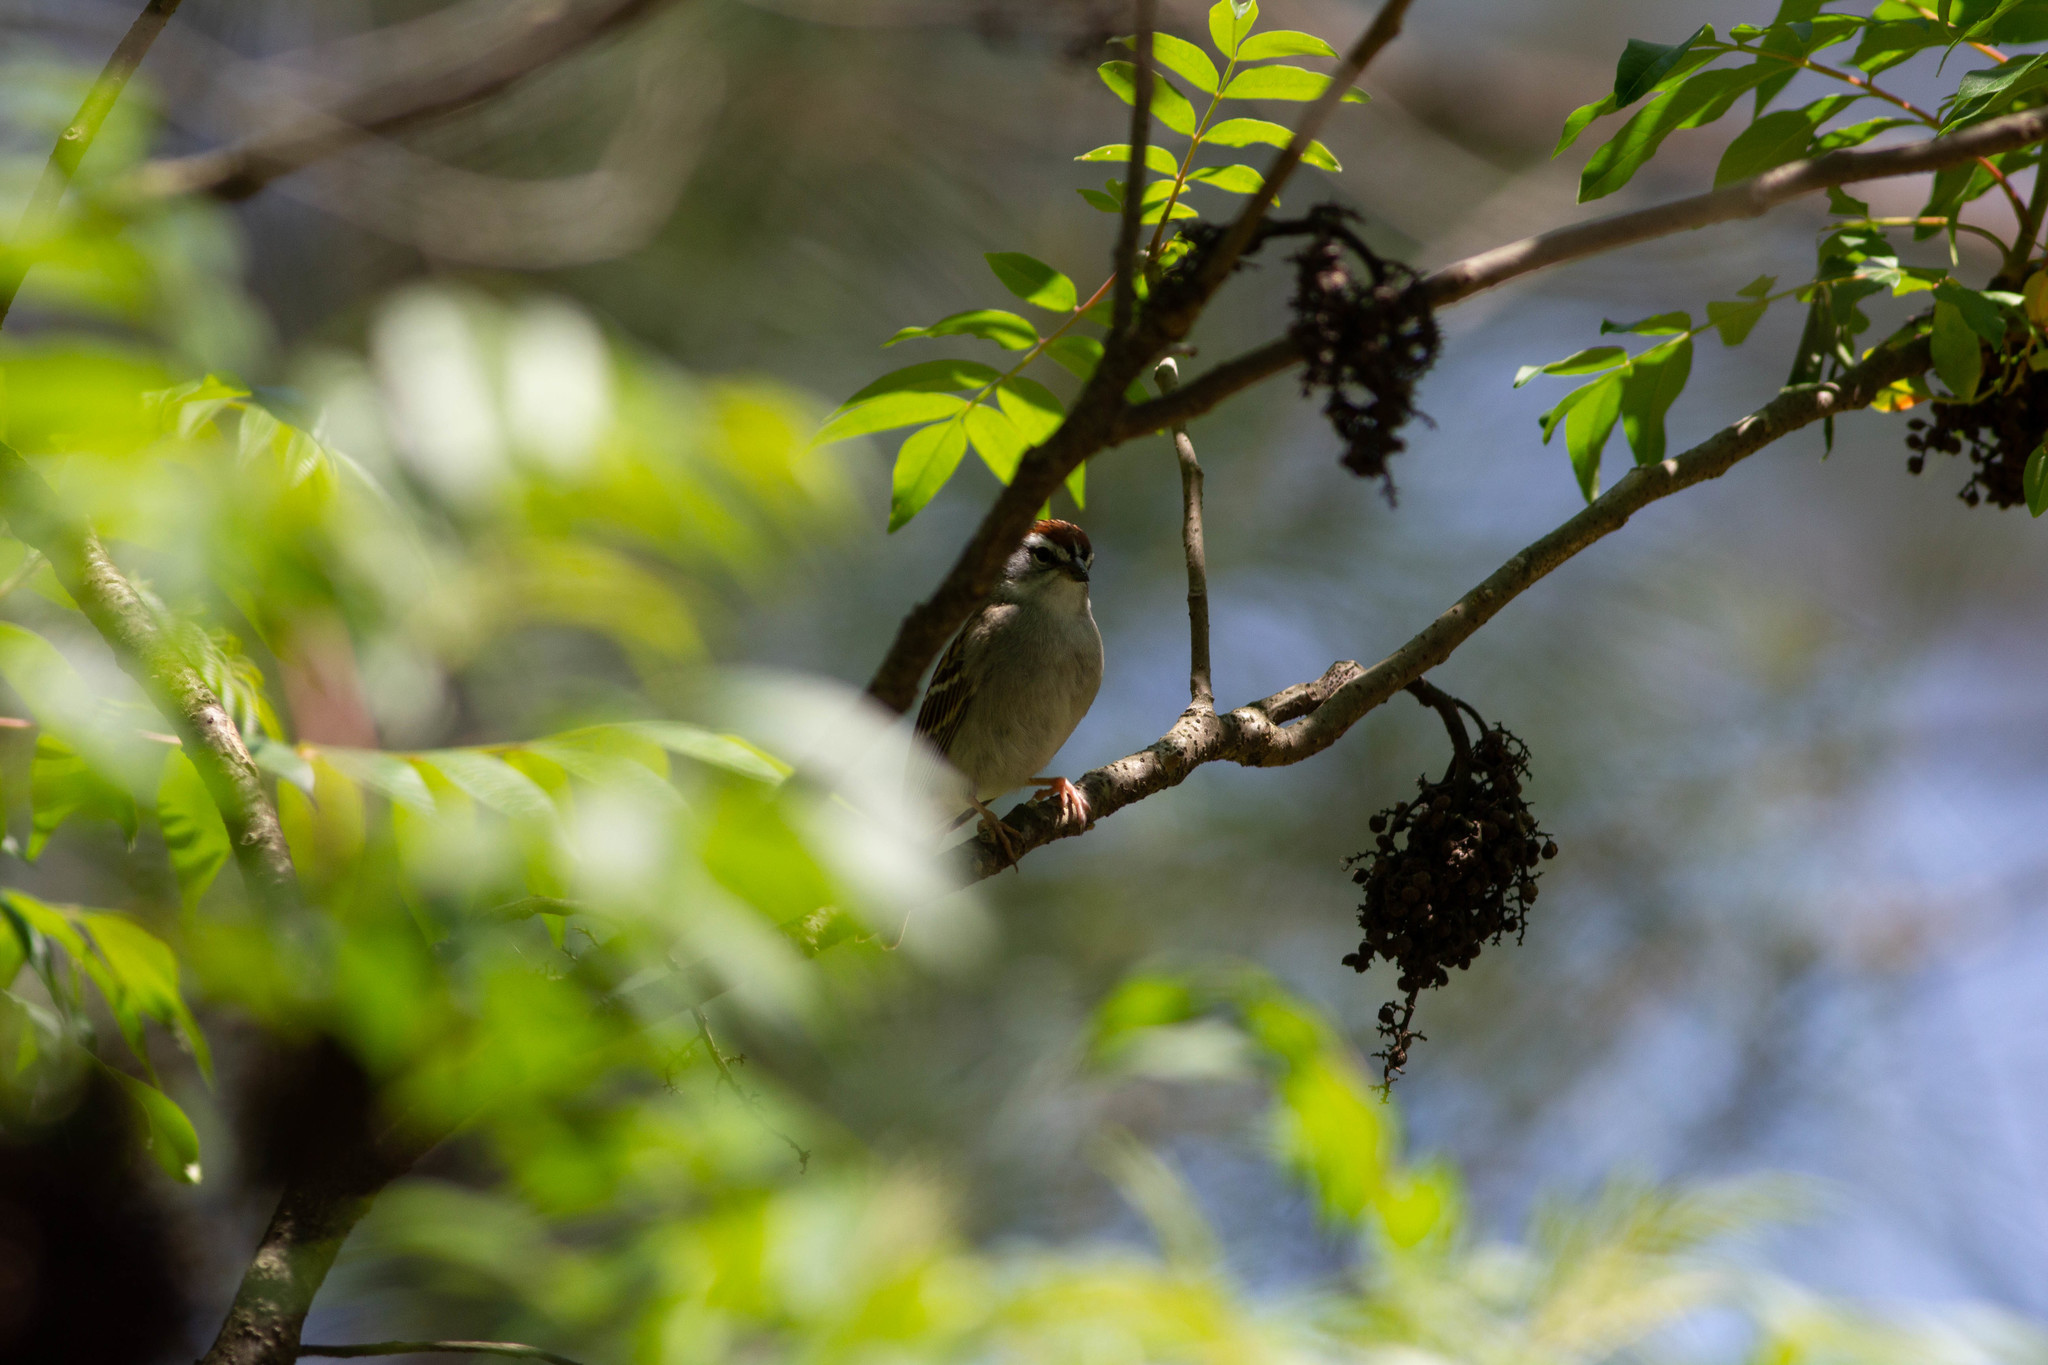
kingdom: Animalia
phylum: Chordata
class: Aves
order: Passeriformes
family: Passerellidae
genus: Spizella
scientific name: Spizella passerina
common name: Chipping sparrow
